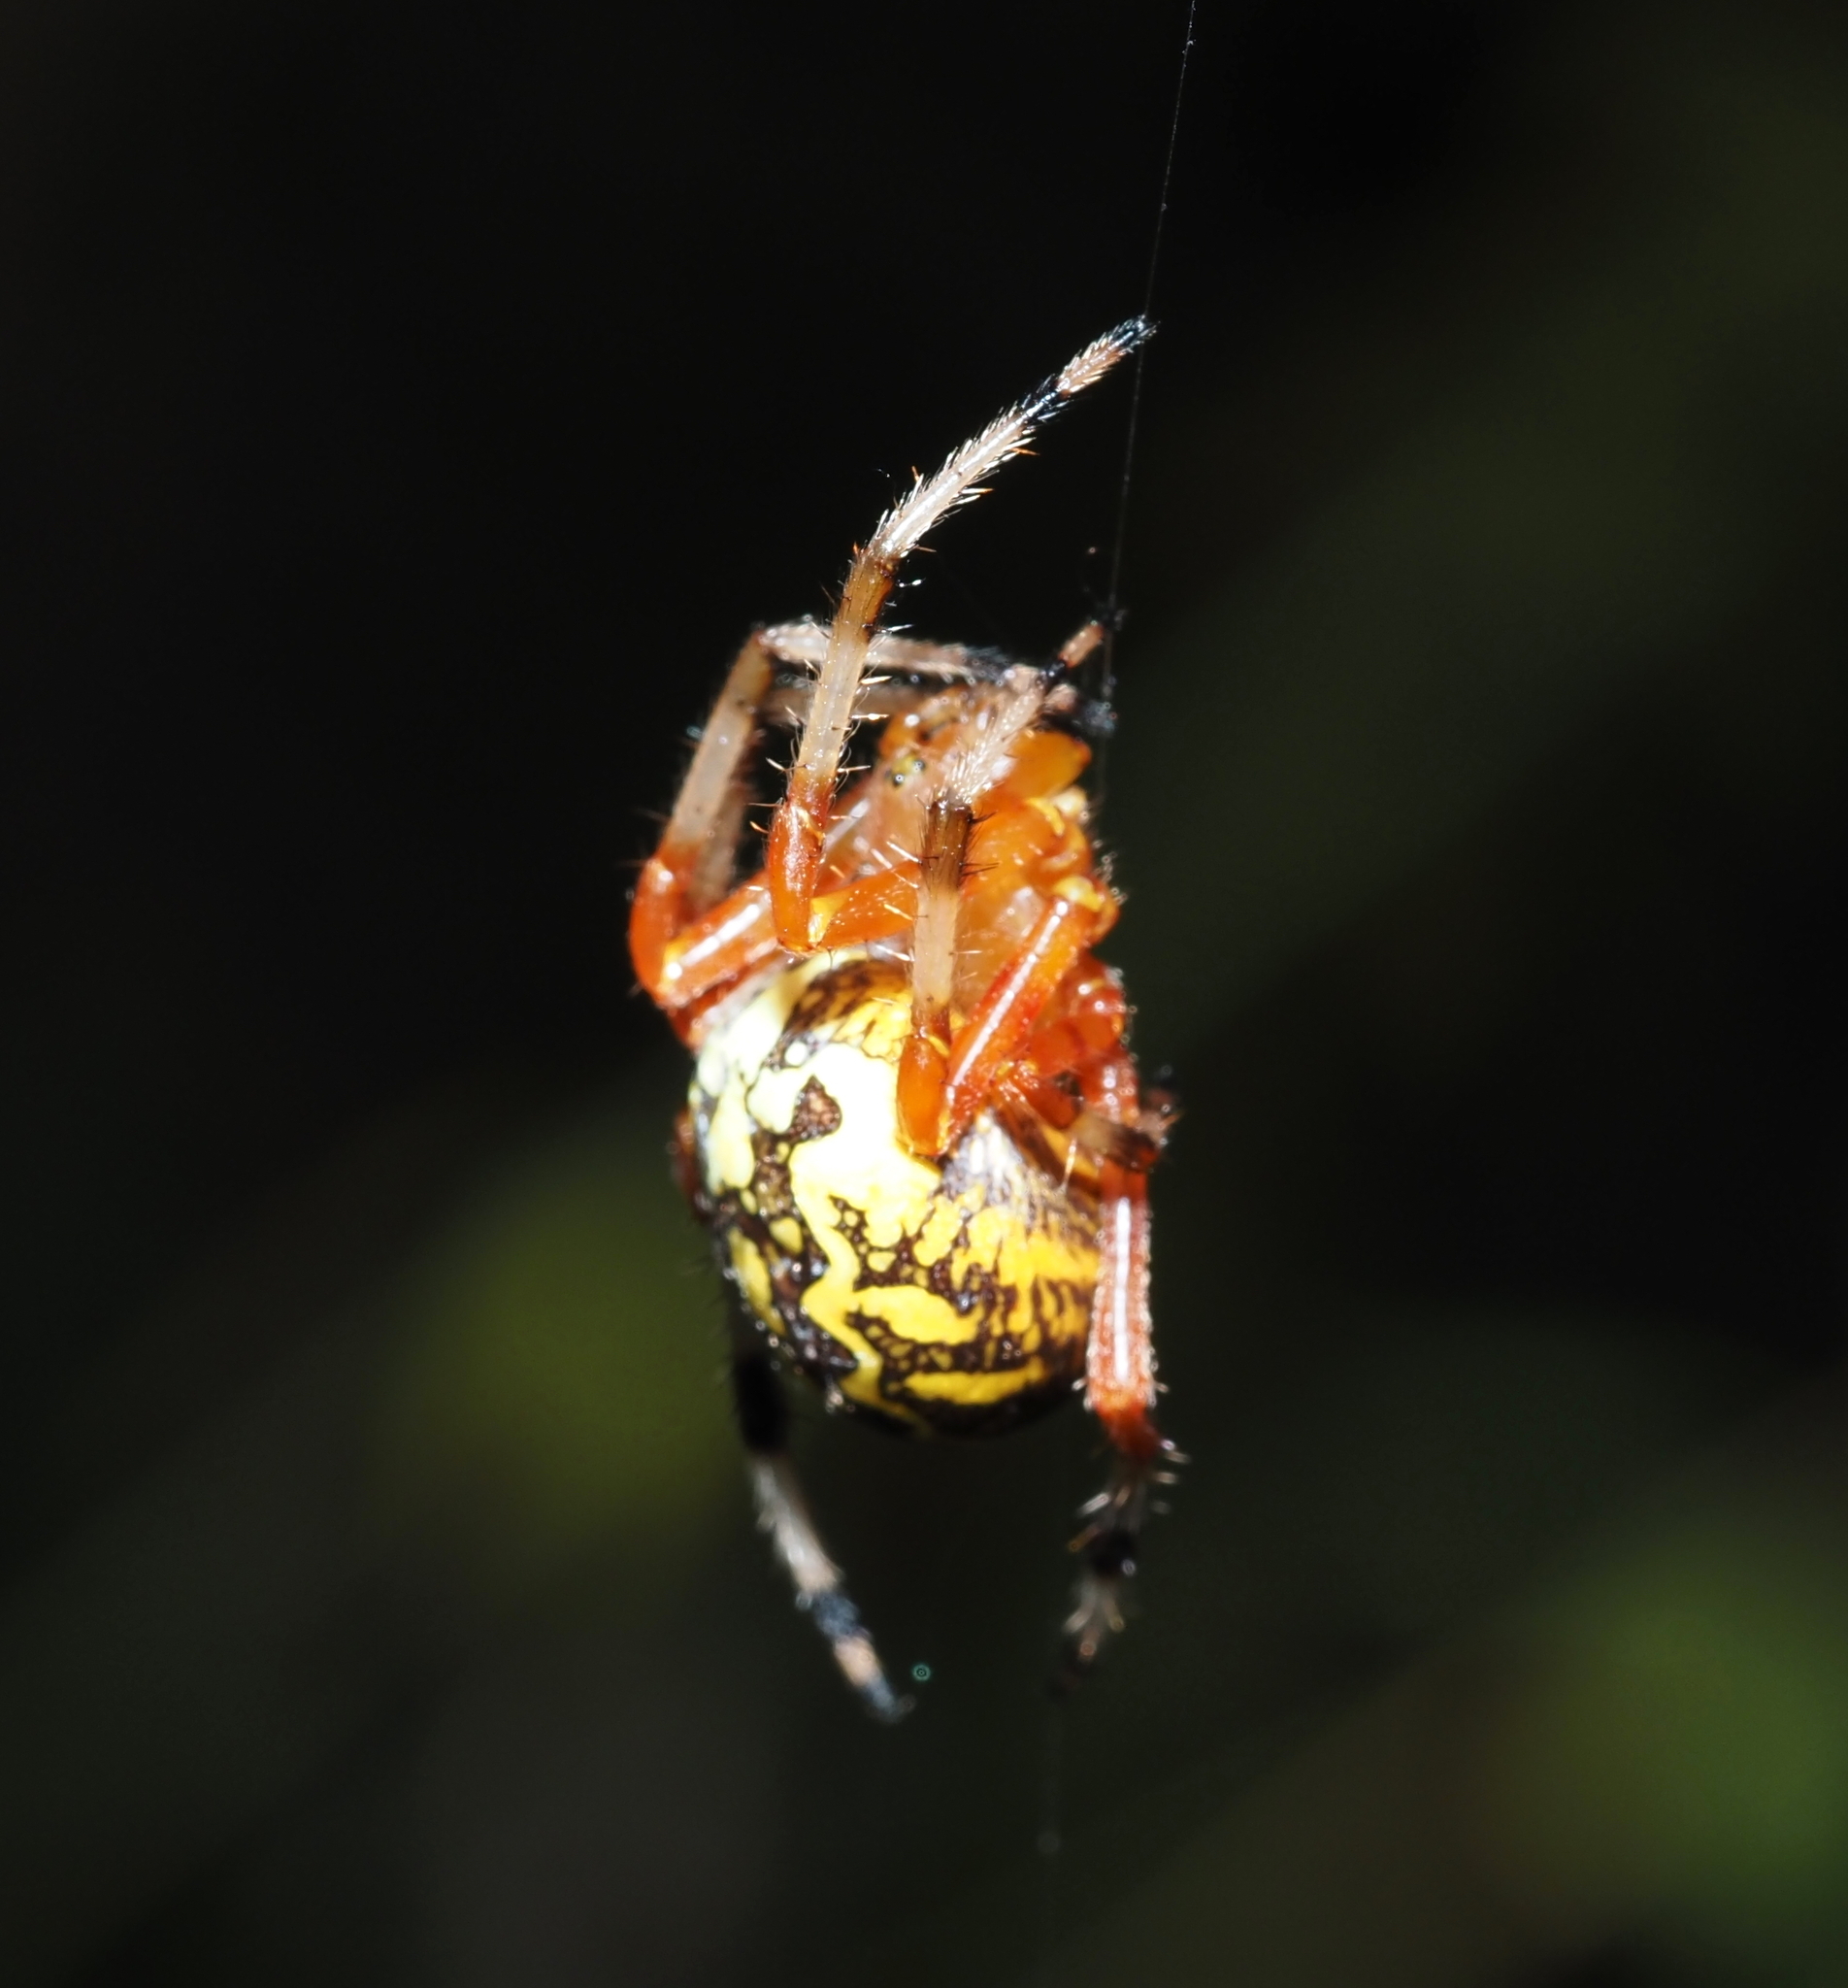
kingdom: Animalia
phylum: Arthropoda
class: Arachnida
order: Araneae
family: Araneidae
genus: Araneus
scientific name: Araneus marmoreus
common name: Marbled orbweaver
